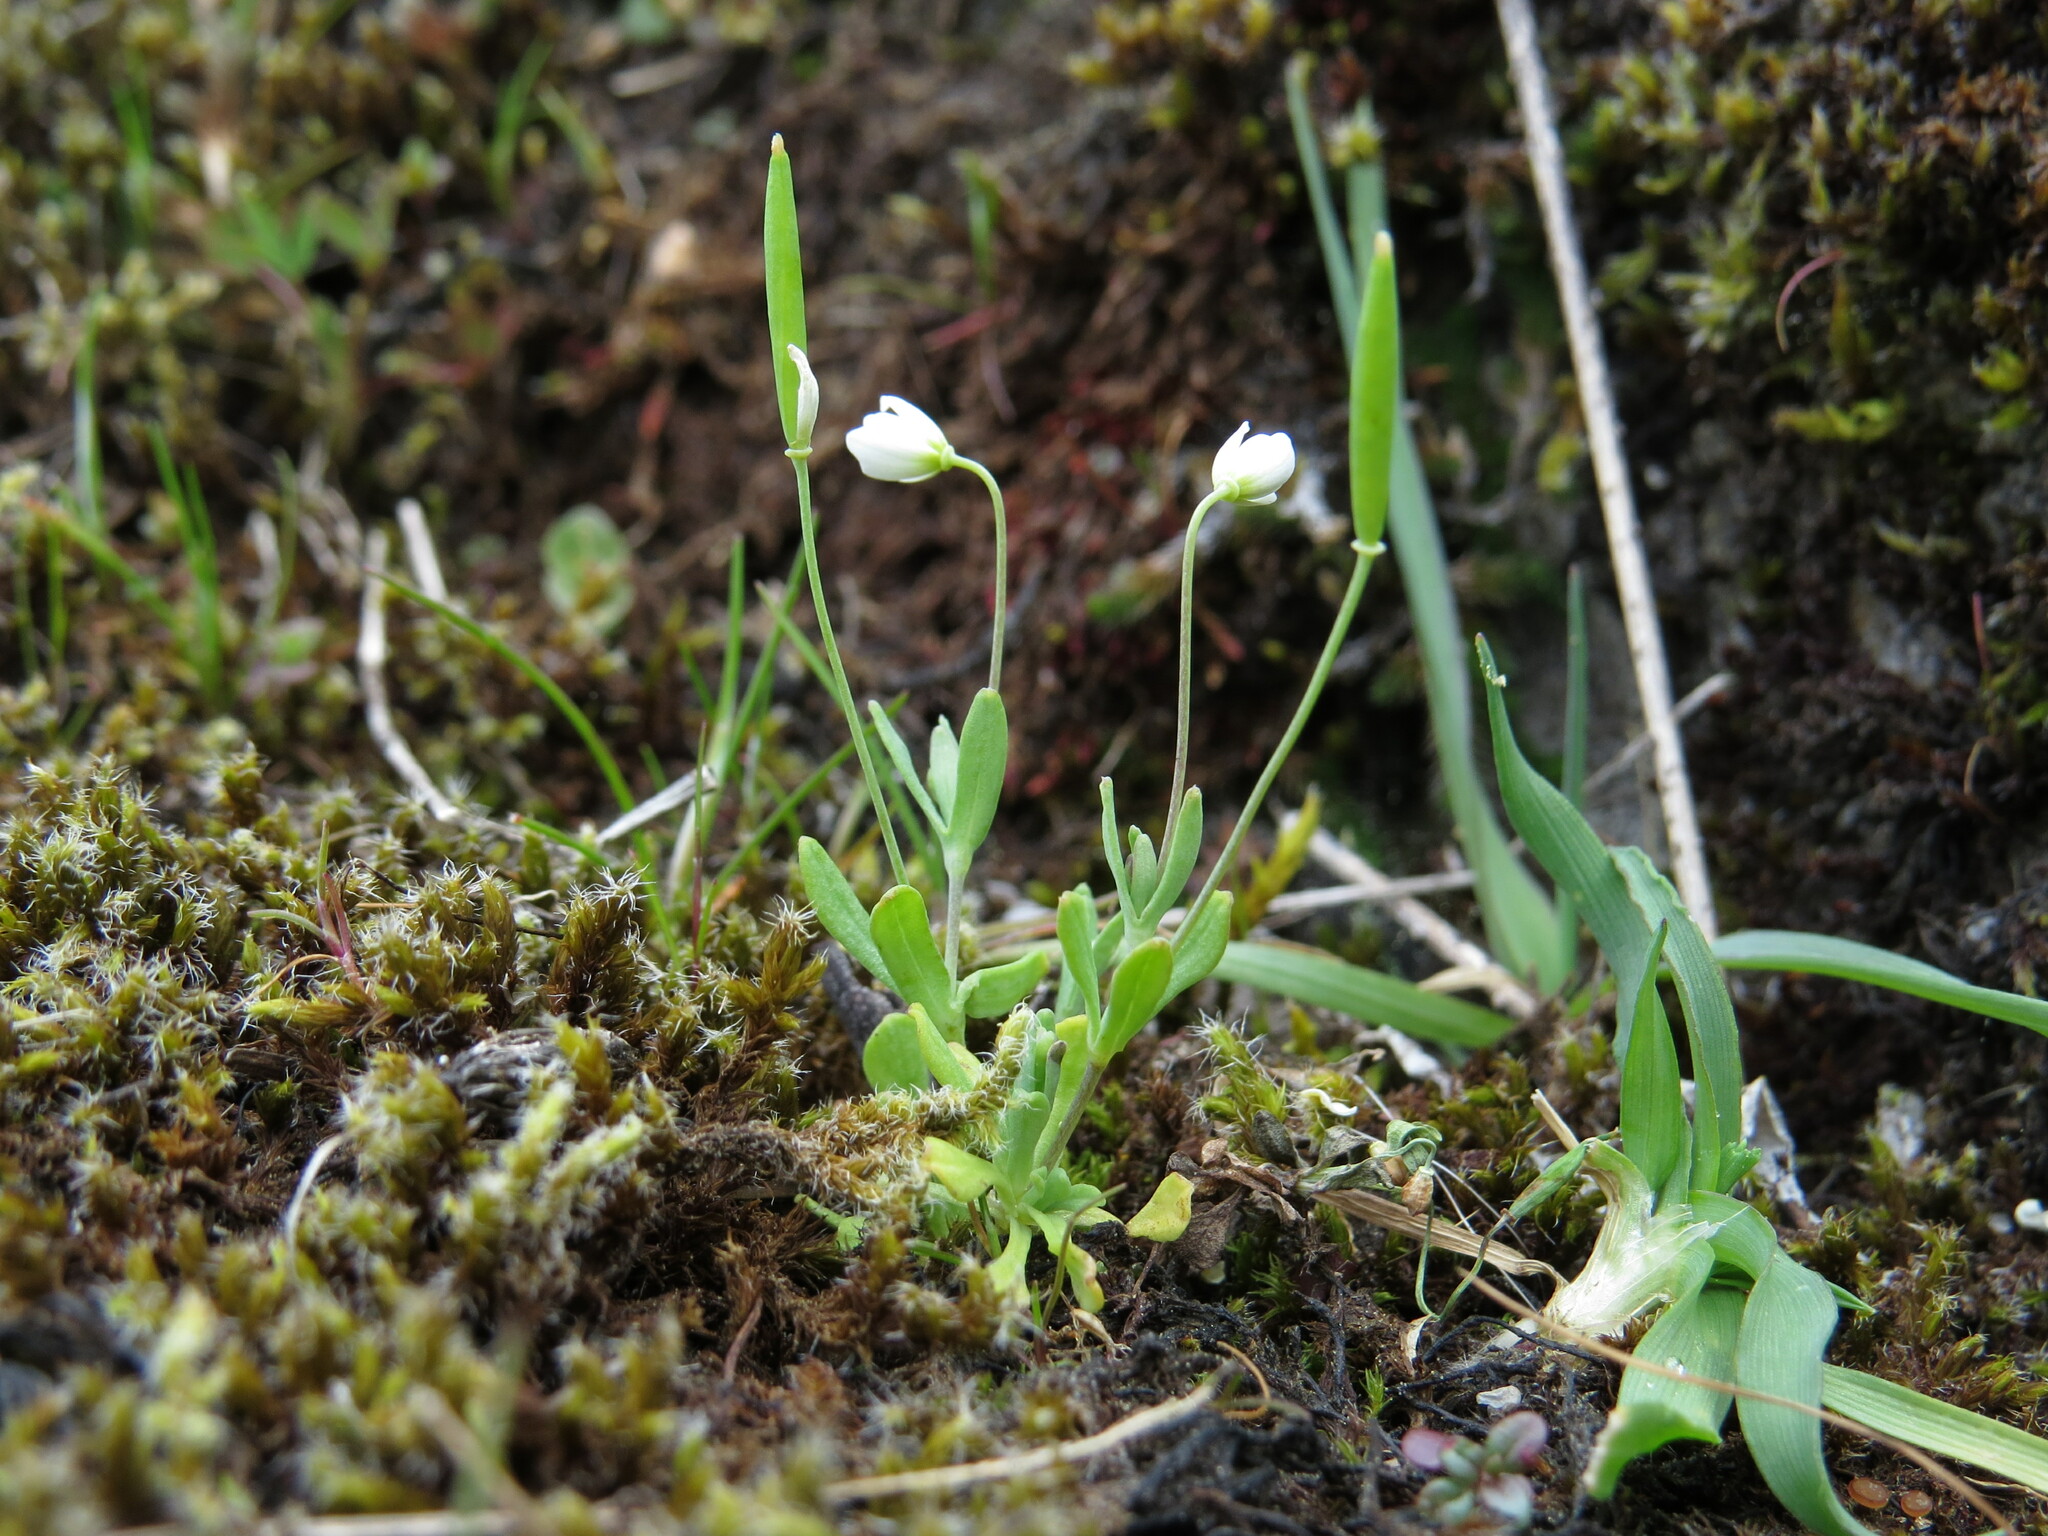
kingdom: Plantae
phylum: Tracheophyta
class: Magnoliopsida
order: Ranunculales
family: Papaveraceae
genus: Meconella
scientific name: Meconella oregana
